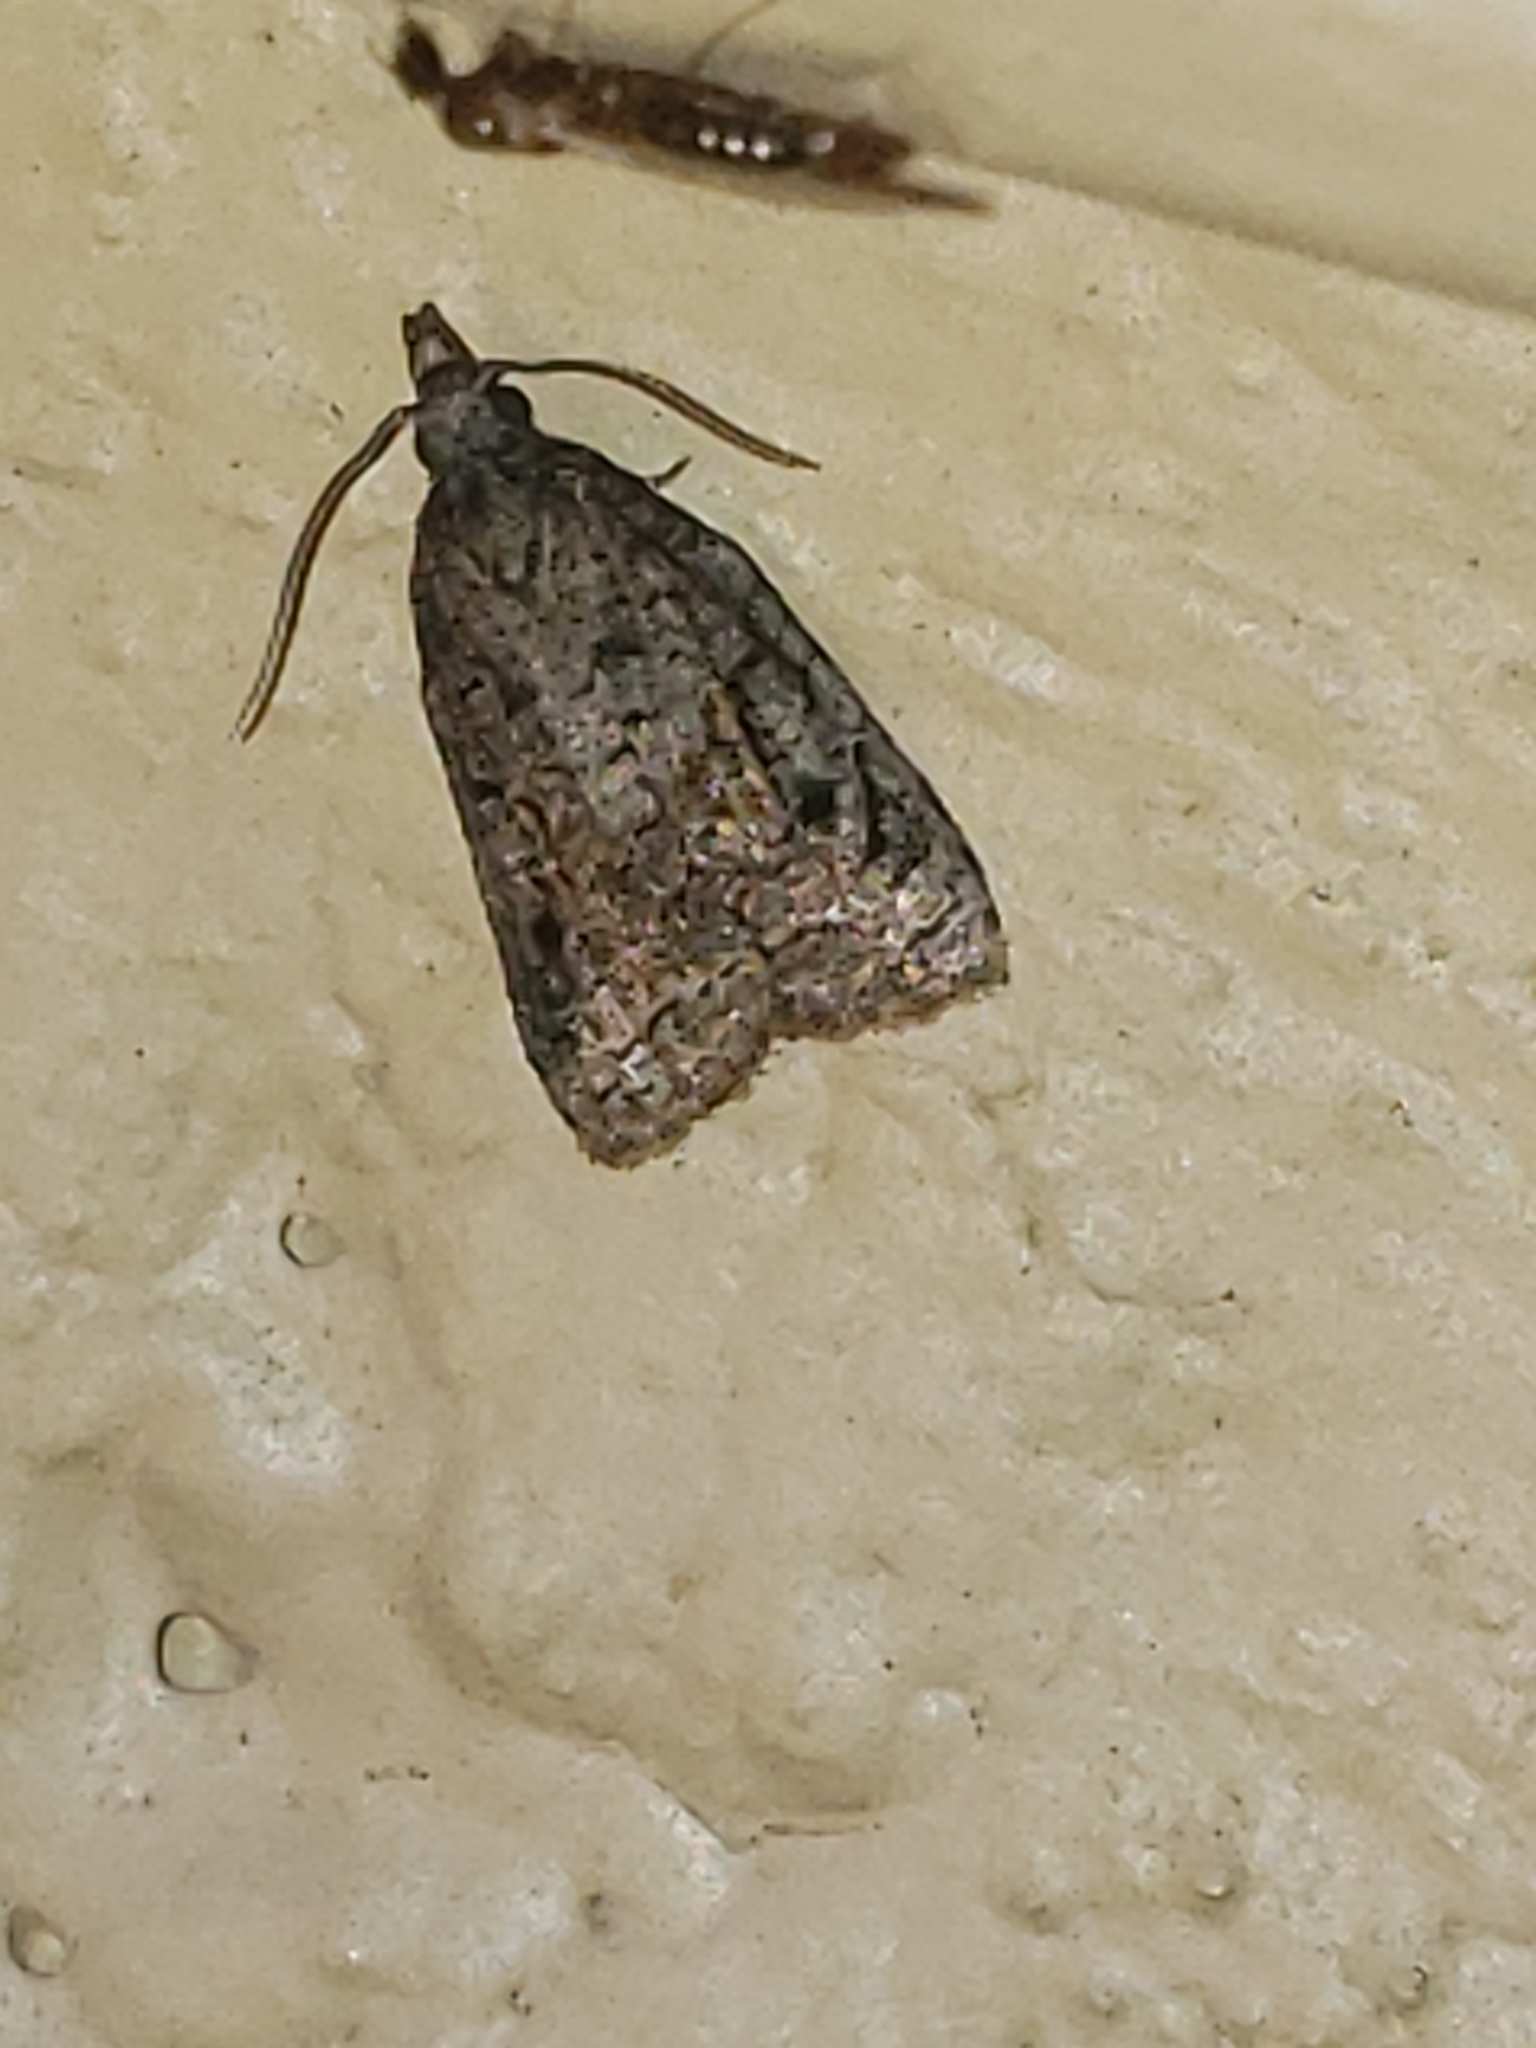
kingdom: Animalia
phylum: Arthropoda
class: Insecta
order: Lepidoptera
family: Tortricidae
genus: Platynota
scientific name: Platynota idaeusalis
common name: Tufted apple bud moth
